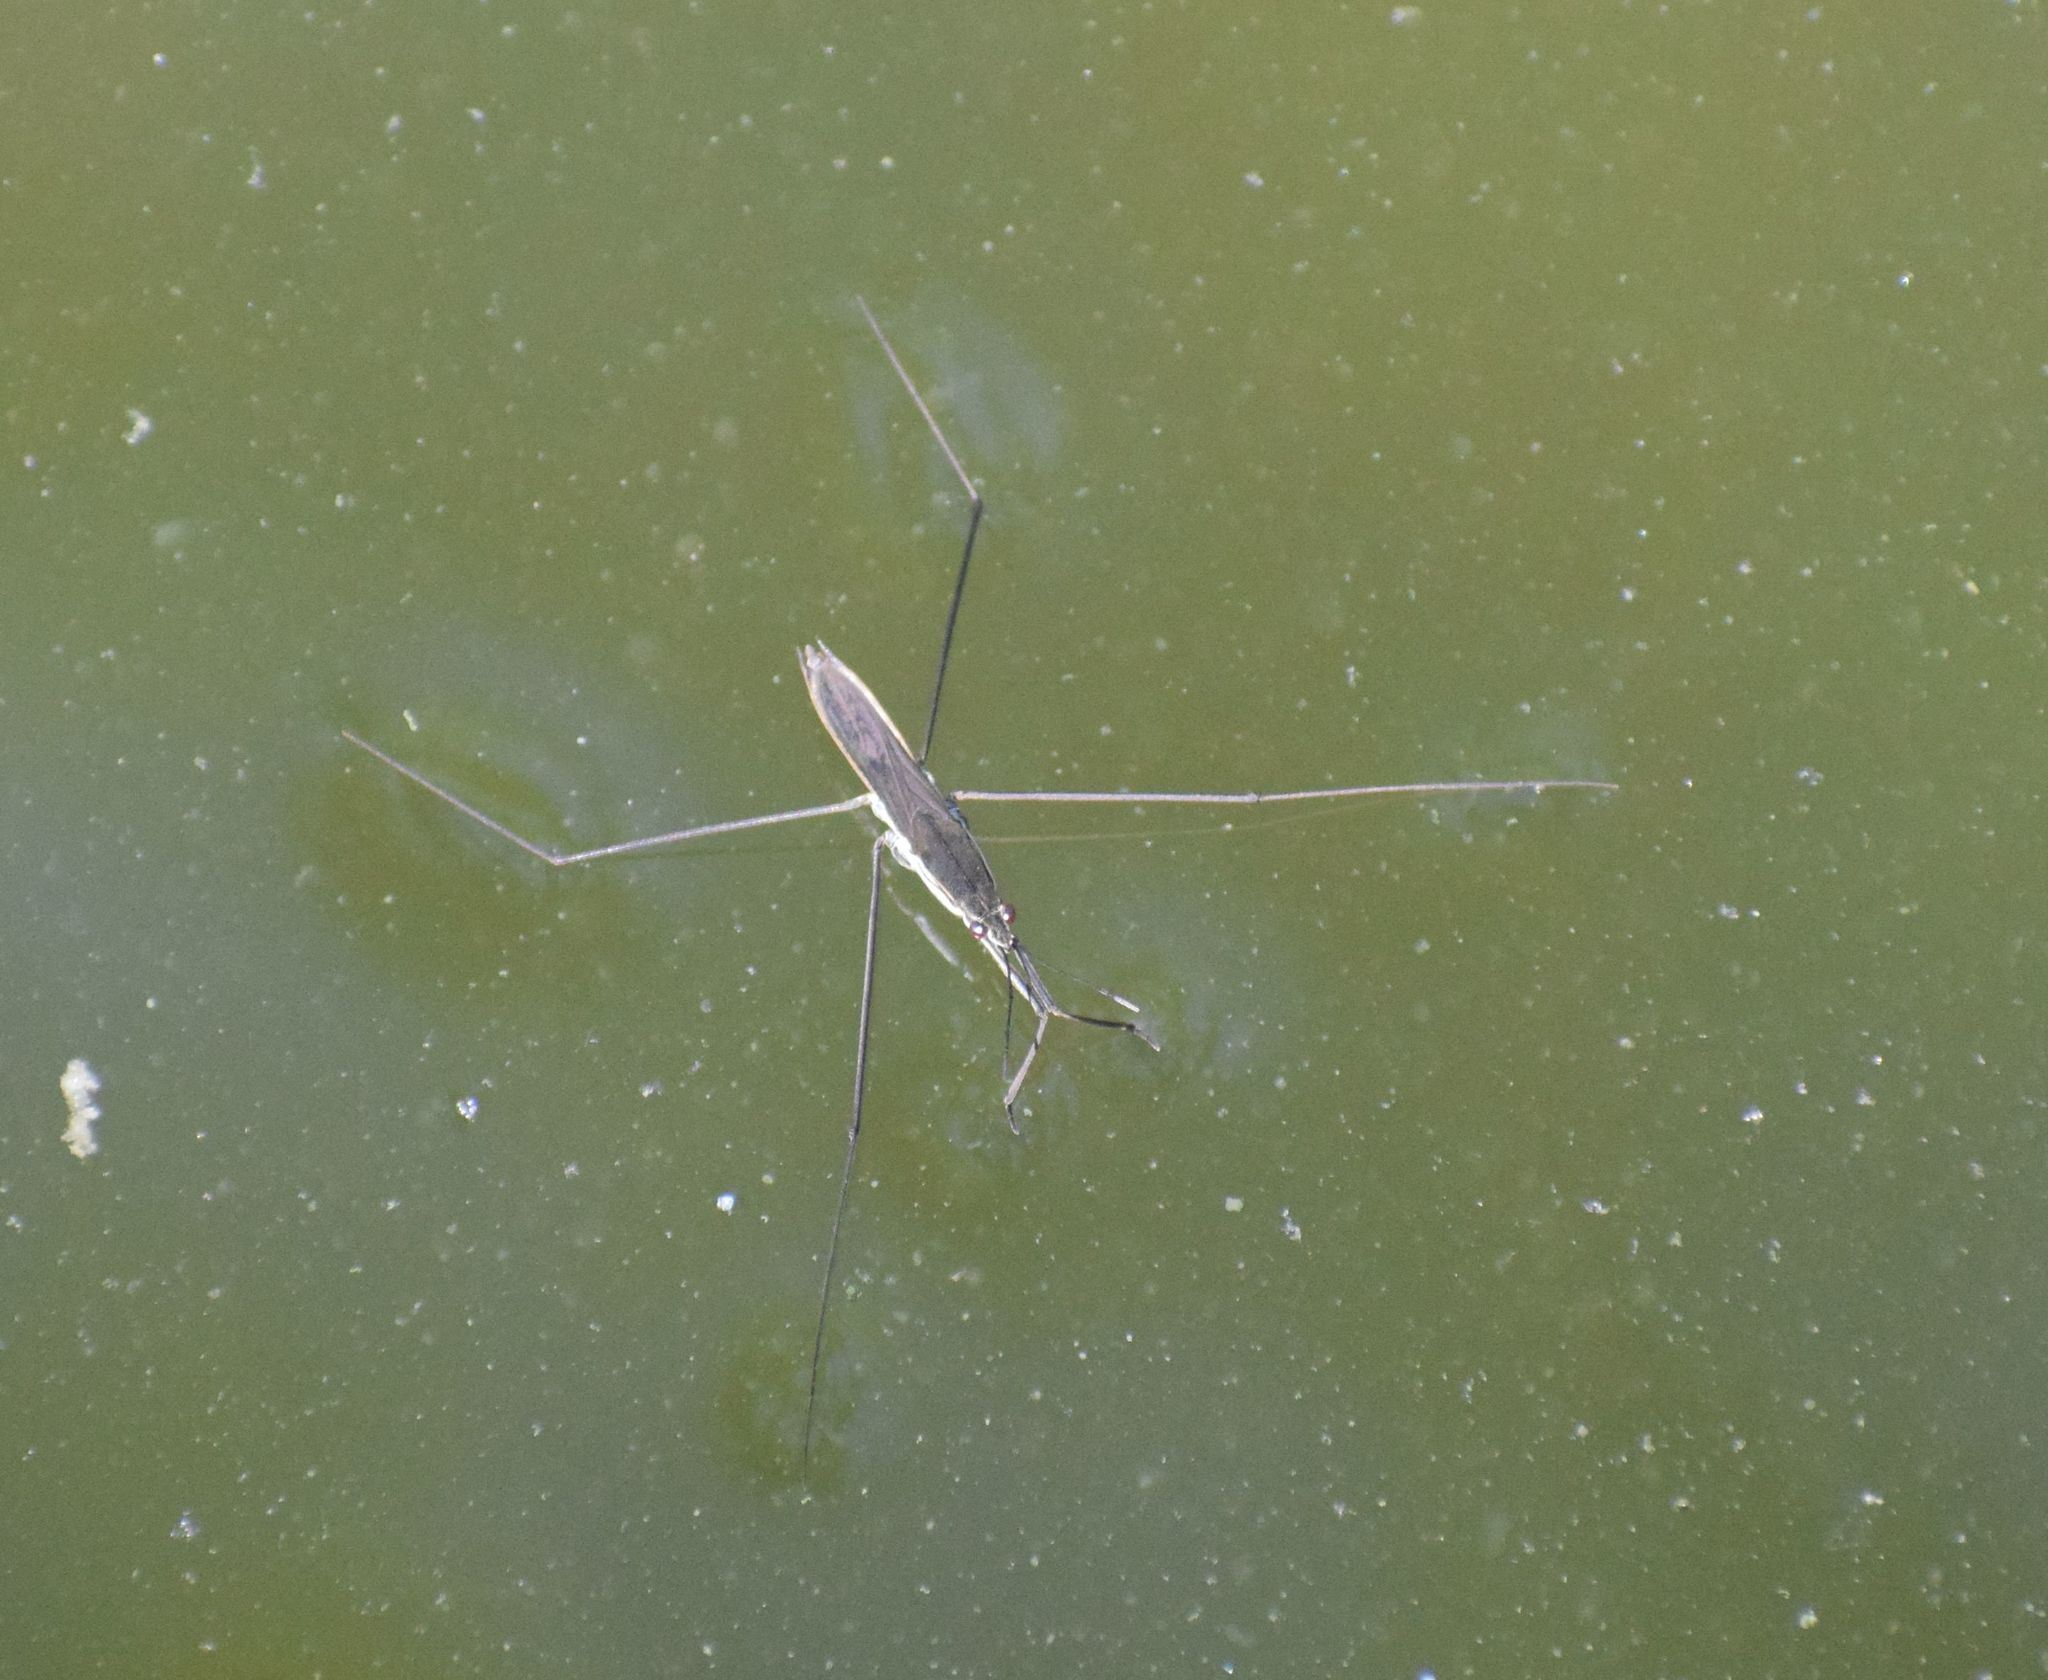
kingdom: Animalia
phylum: Arthropoda
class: Insecta
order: Hemiptera
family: Gerridae
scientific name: Gerridae
